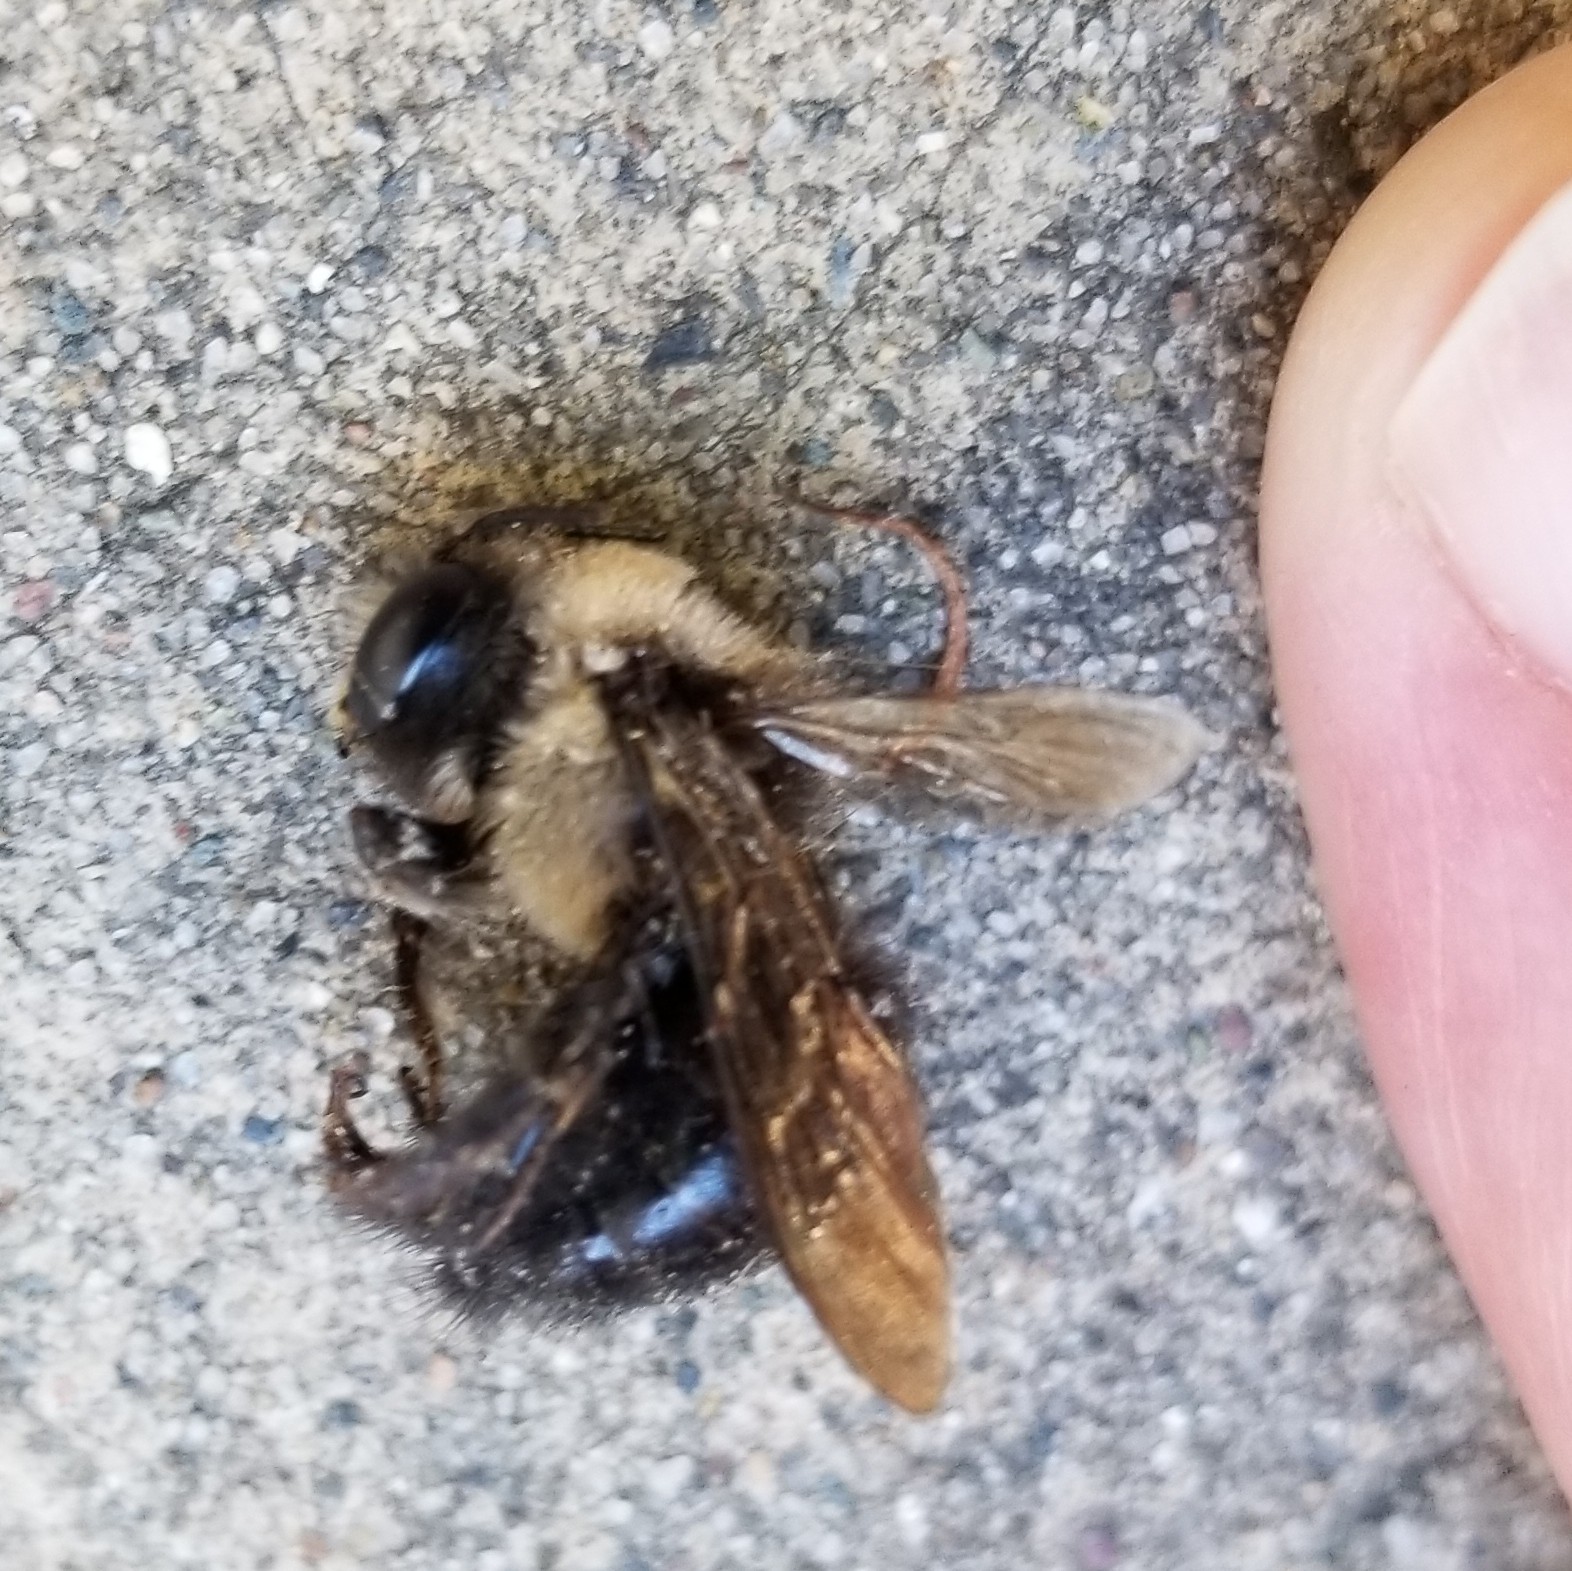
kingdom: Animalia
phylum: Arthropoda
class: Insecta
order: Hymenoptera
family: Apidae
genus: Xylocopa
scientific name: Xylocopa tabaniformis
